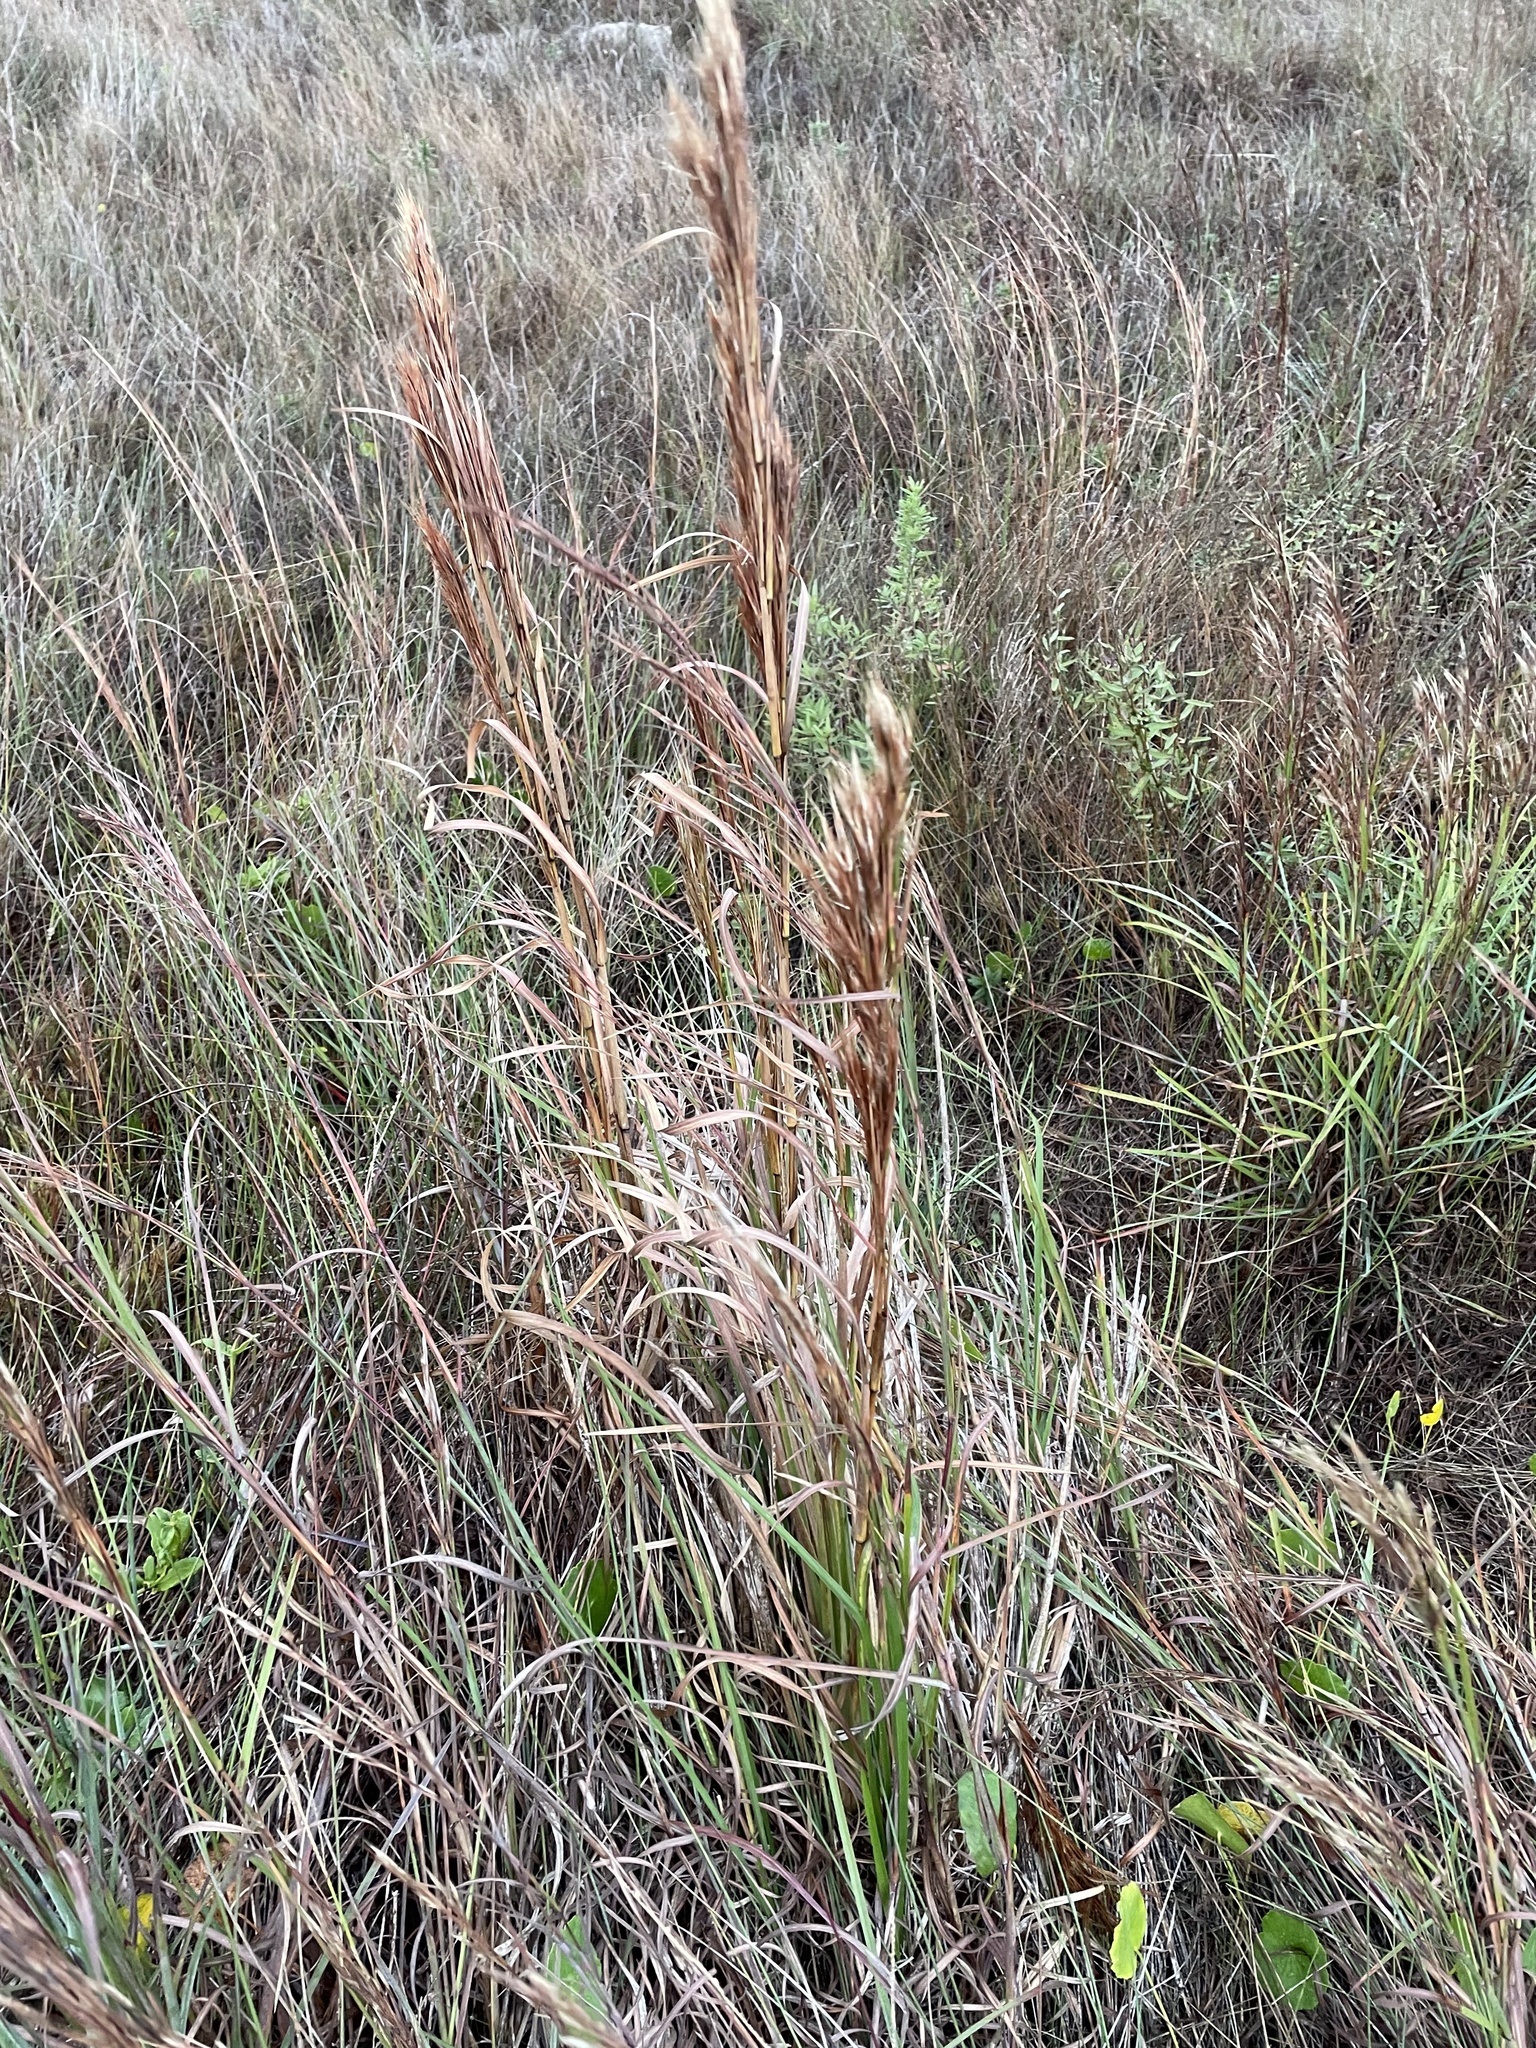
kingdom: Plantae
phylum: Tracheophyta
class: Liliopsida
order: Poales
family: Poaceae
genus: Andropogon
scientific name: Andropogon tenuispatheus
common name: Bushy bluestem
